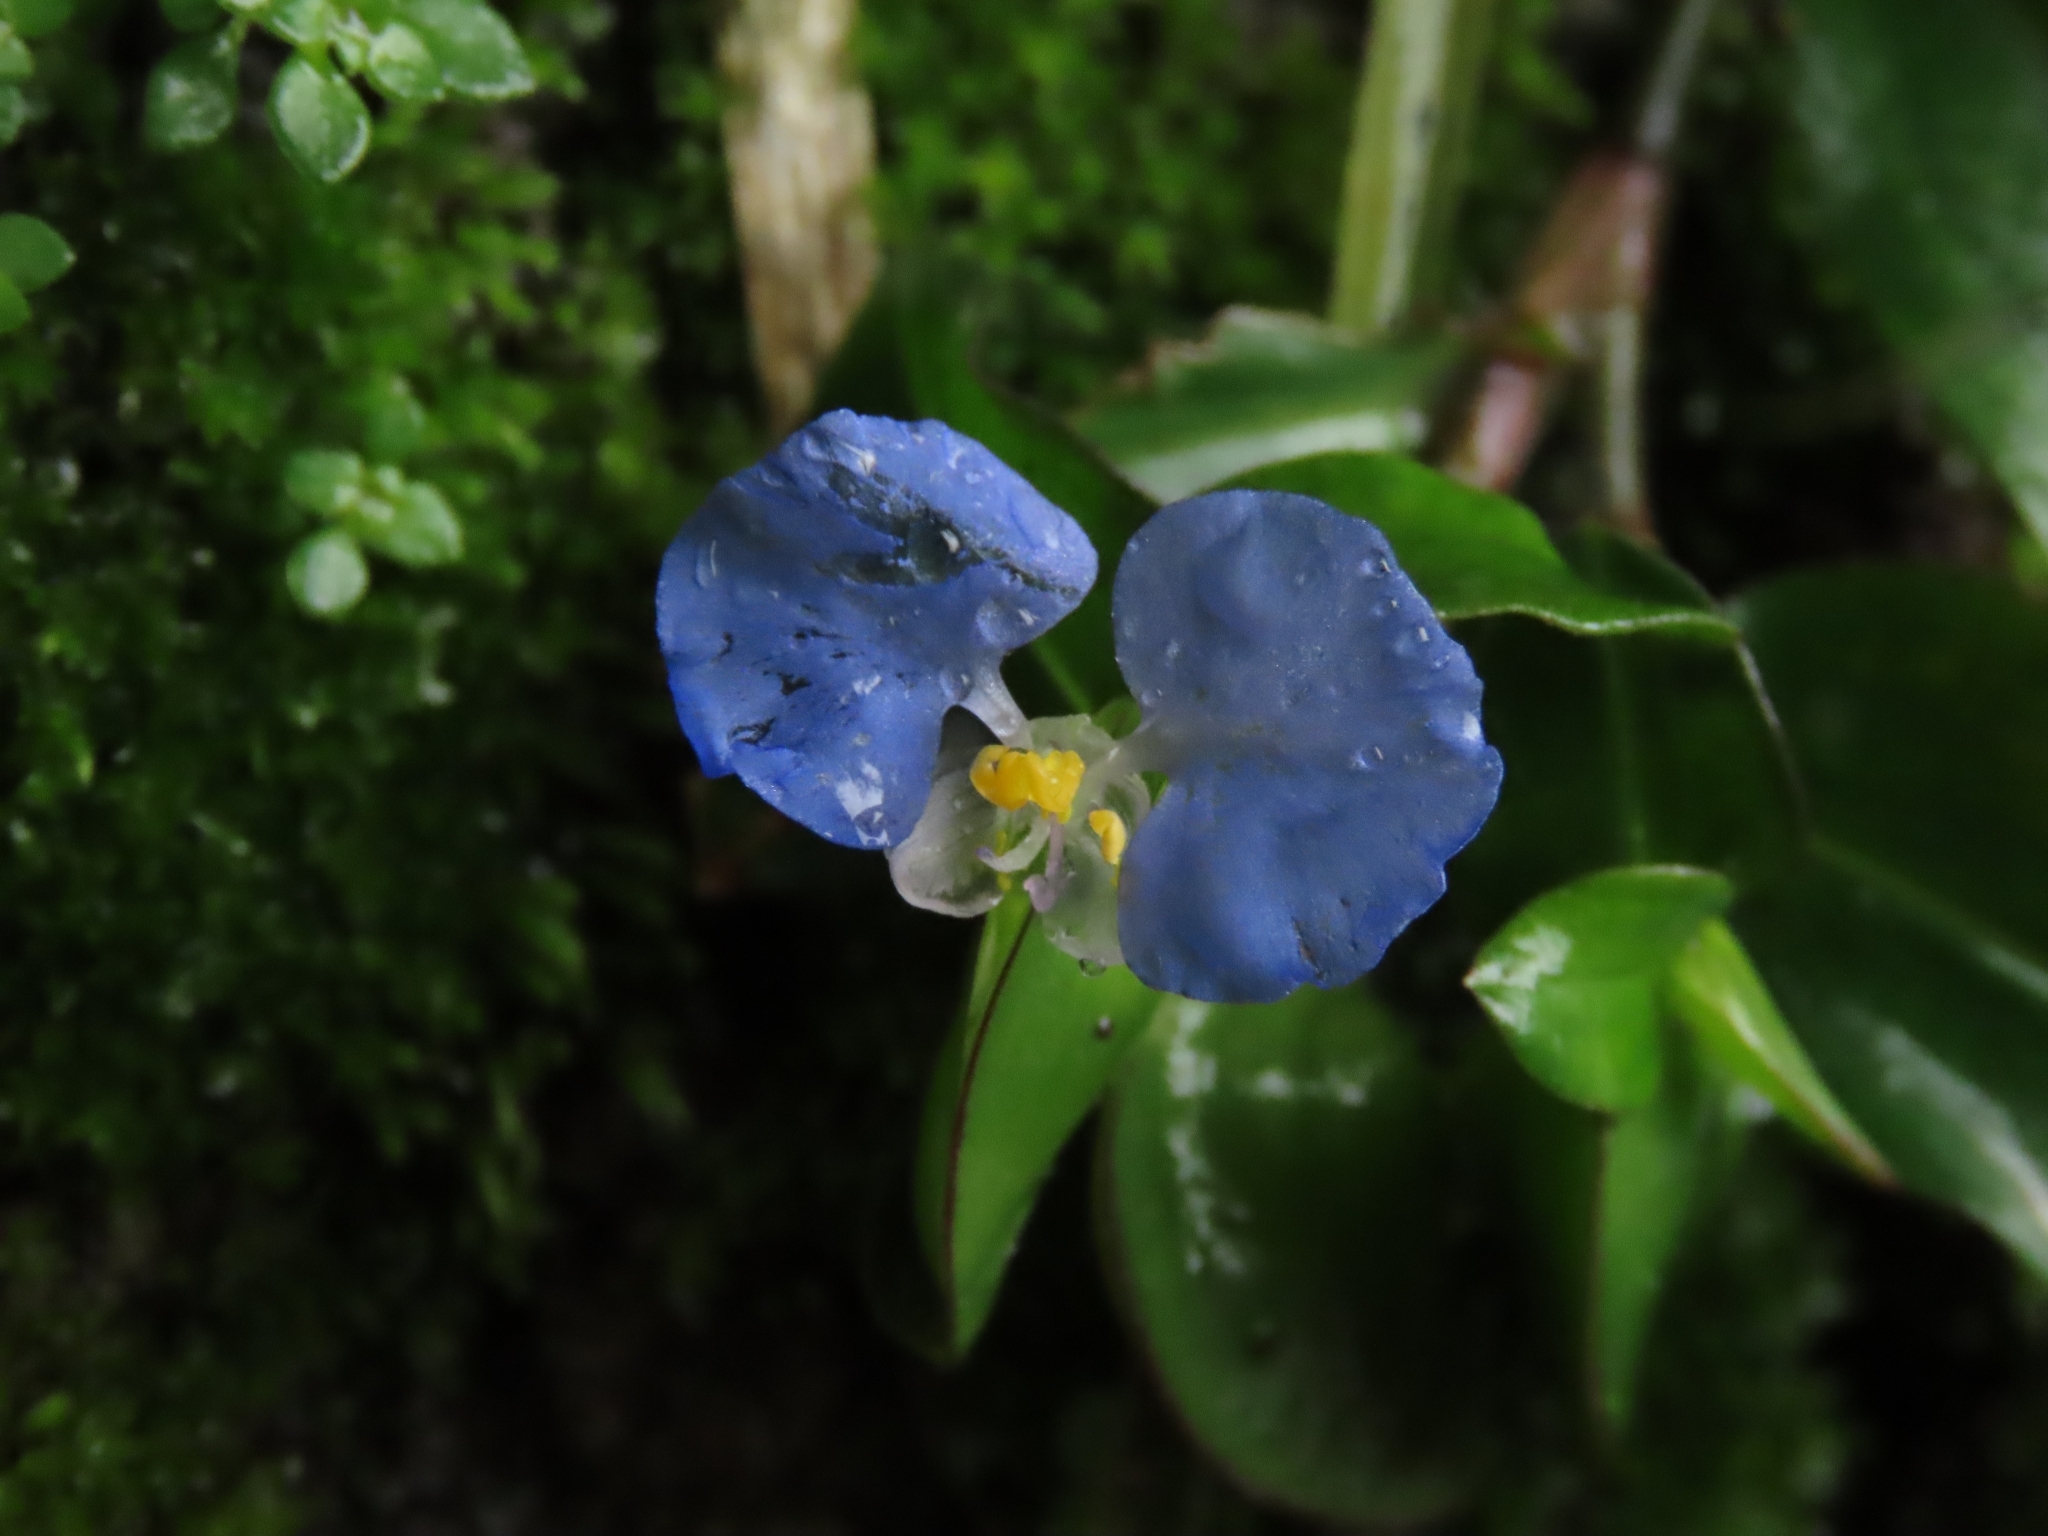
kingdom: Plantae
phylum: Tracheophyta
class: Liliopsida
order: Commelinales
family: Commelinaceae
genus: Commelina
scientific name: Commelina auriculata
